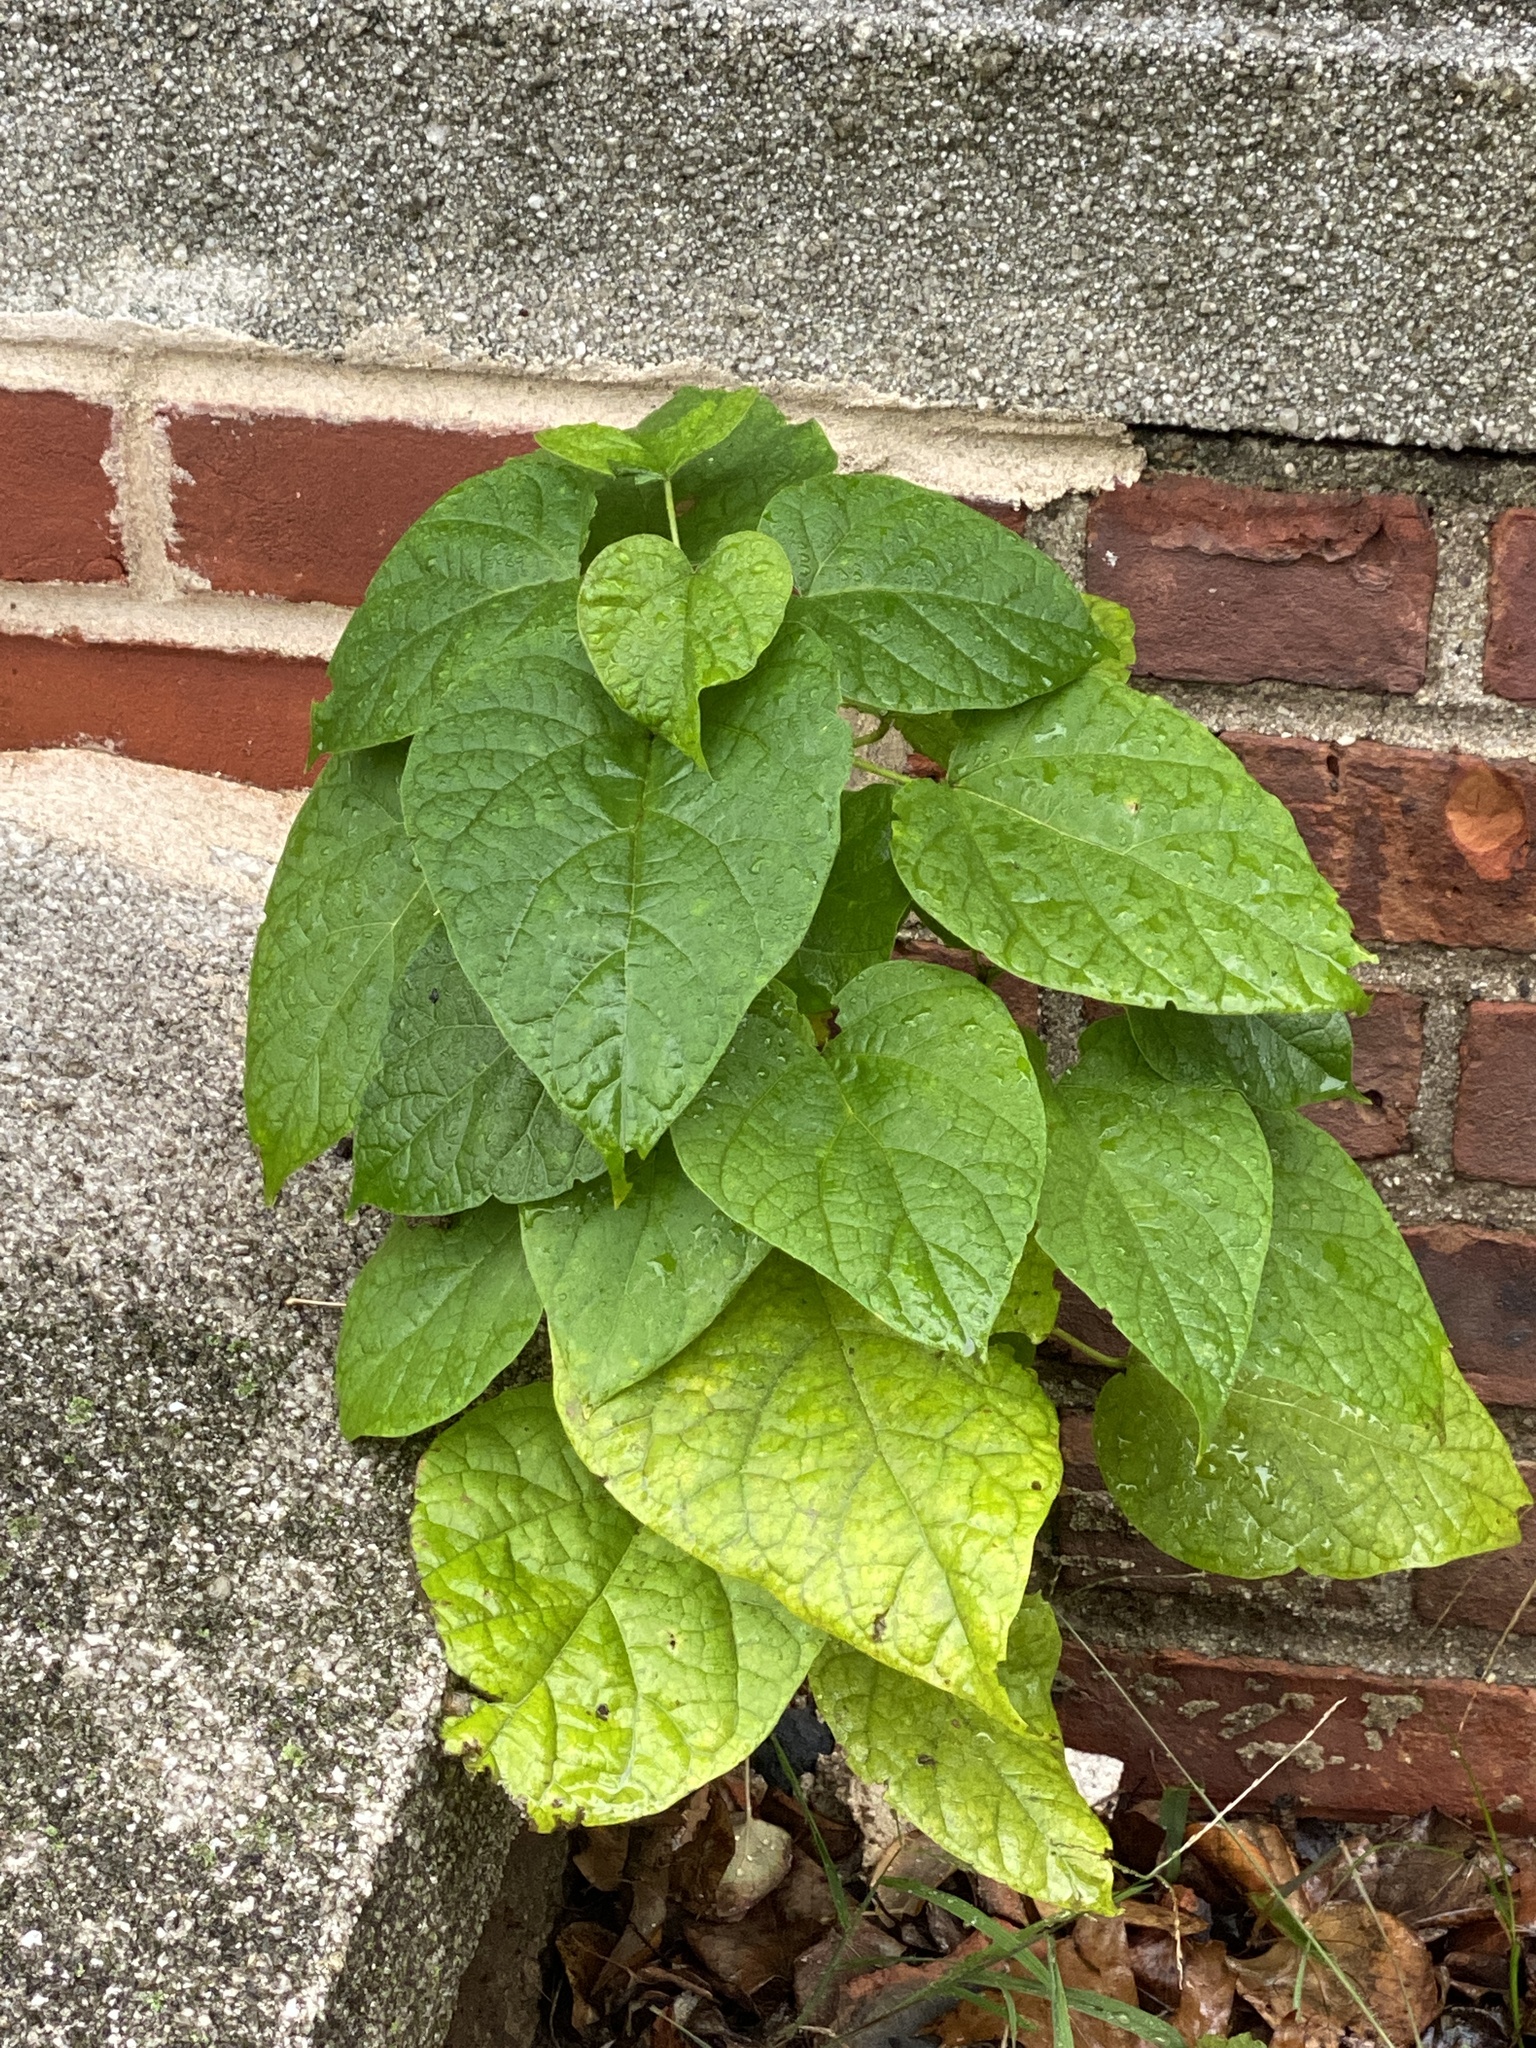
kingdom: Plantae
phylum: Tracheophyta
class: Magnoliopsida
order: Lamiales
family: Paulowniaceae
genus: Paulownia
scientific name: Paulownia tomentosa
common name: Foxglove-tree
